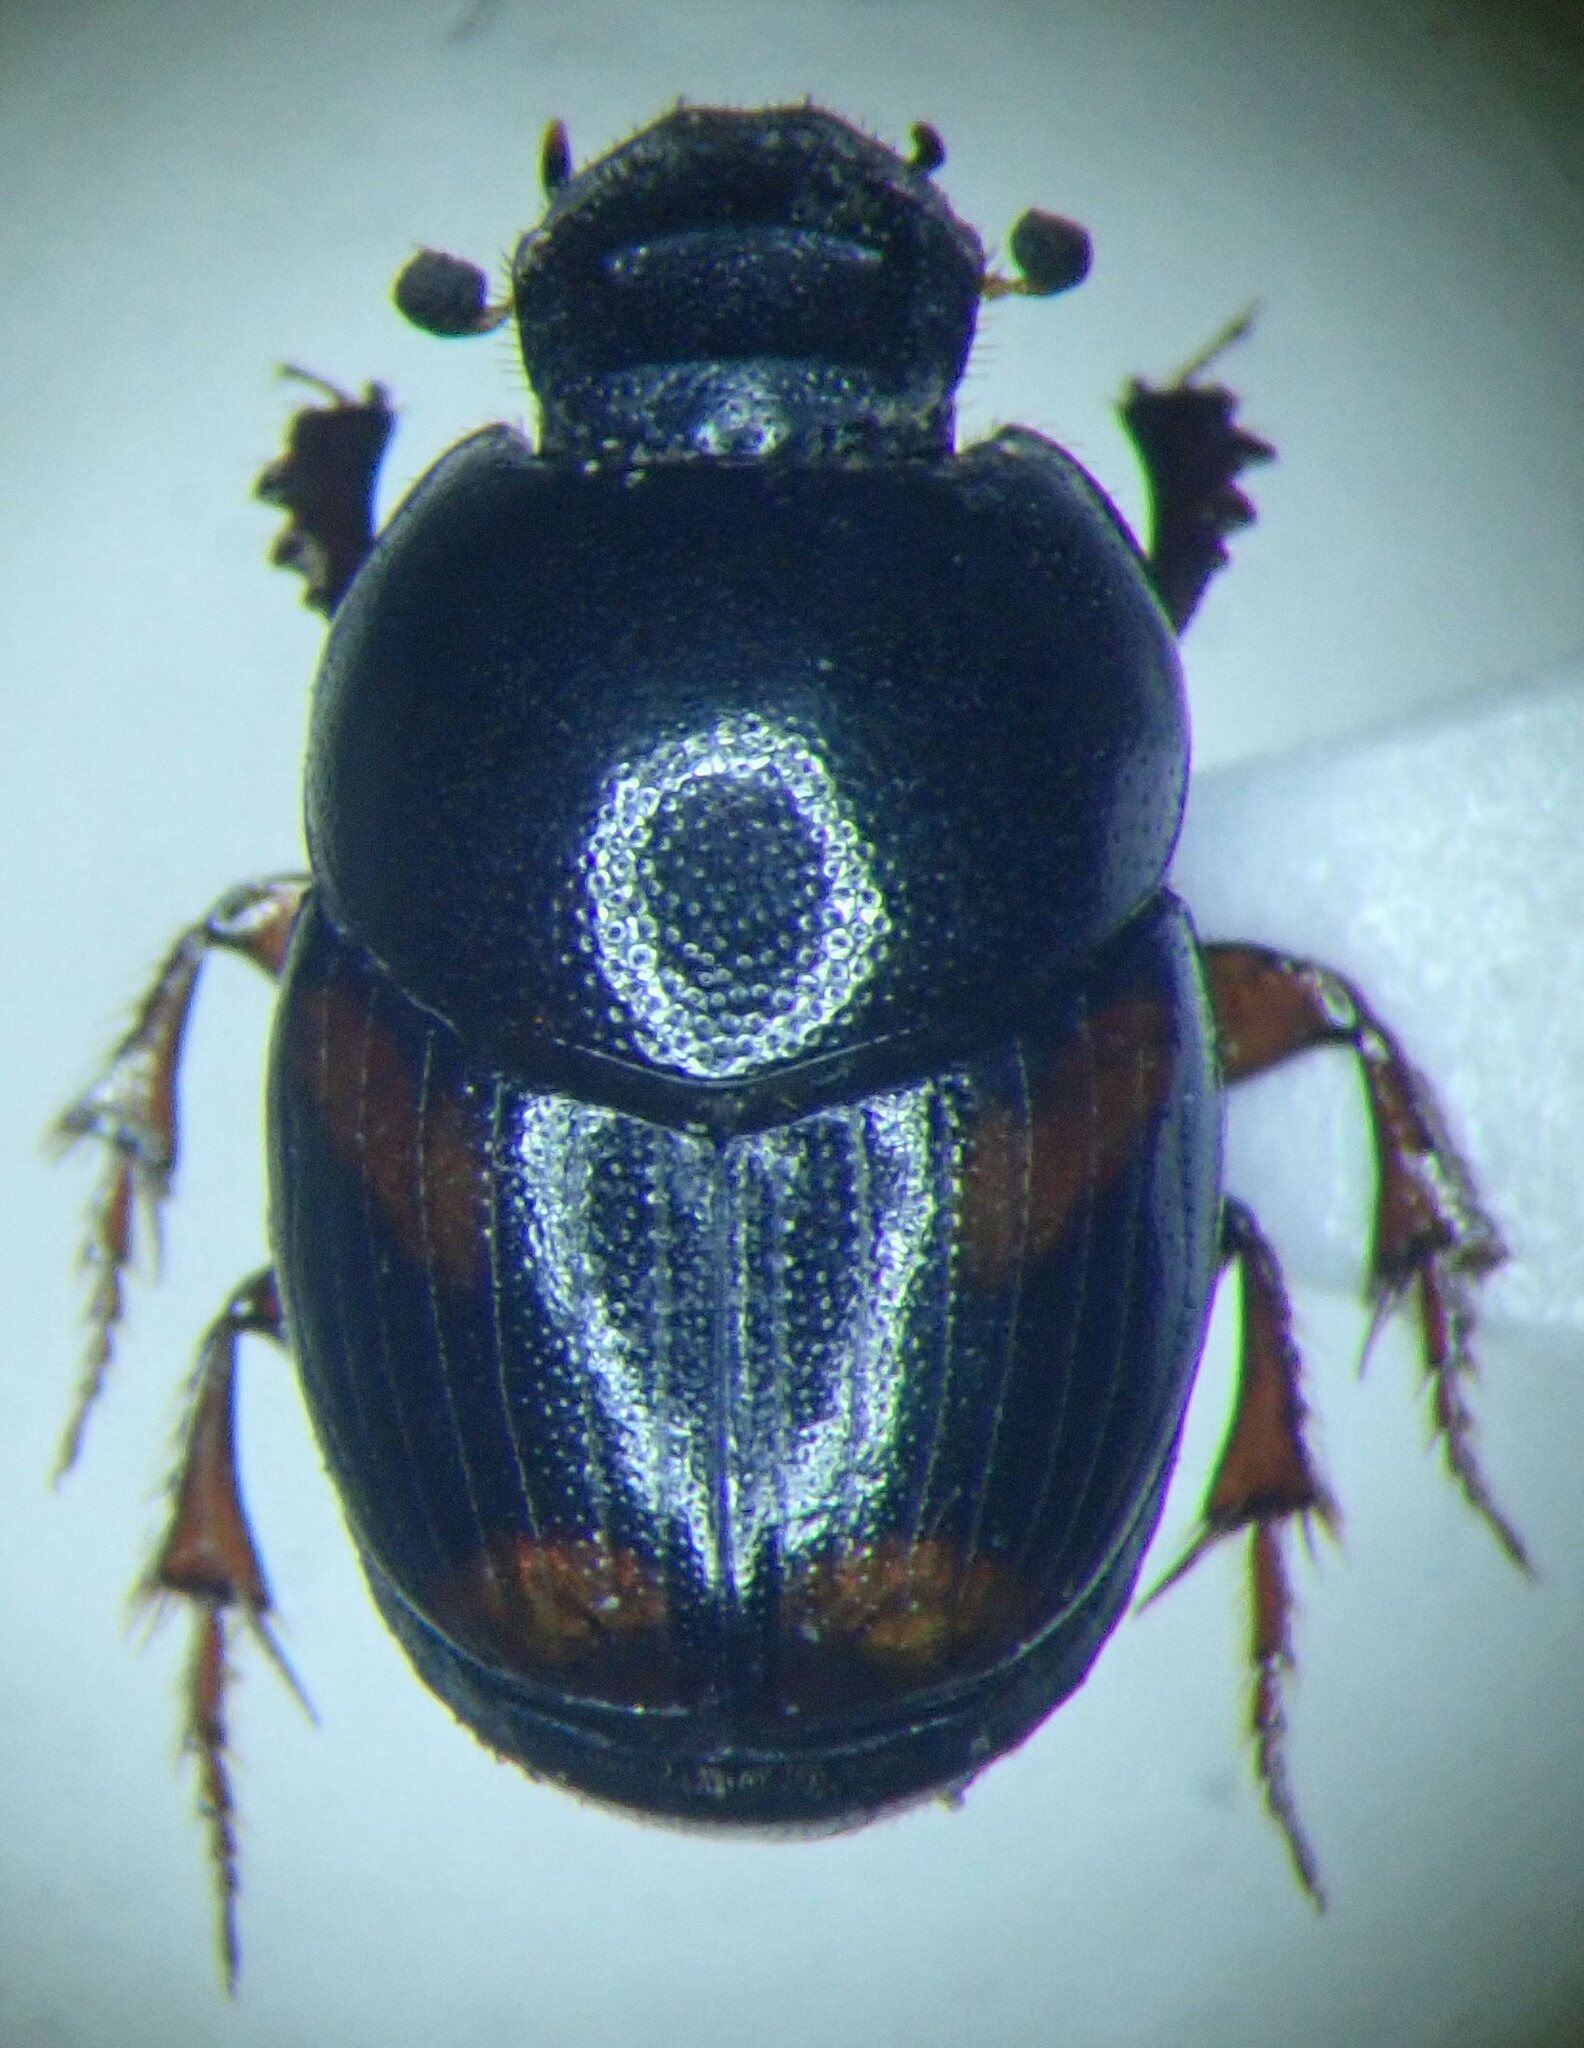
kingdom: Animalia
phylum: Arthropoda
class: Insecta
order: Coleoptera
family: Scarabaeidae
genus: Caccobius
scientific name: Caccobius schreberi
